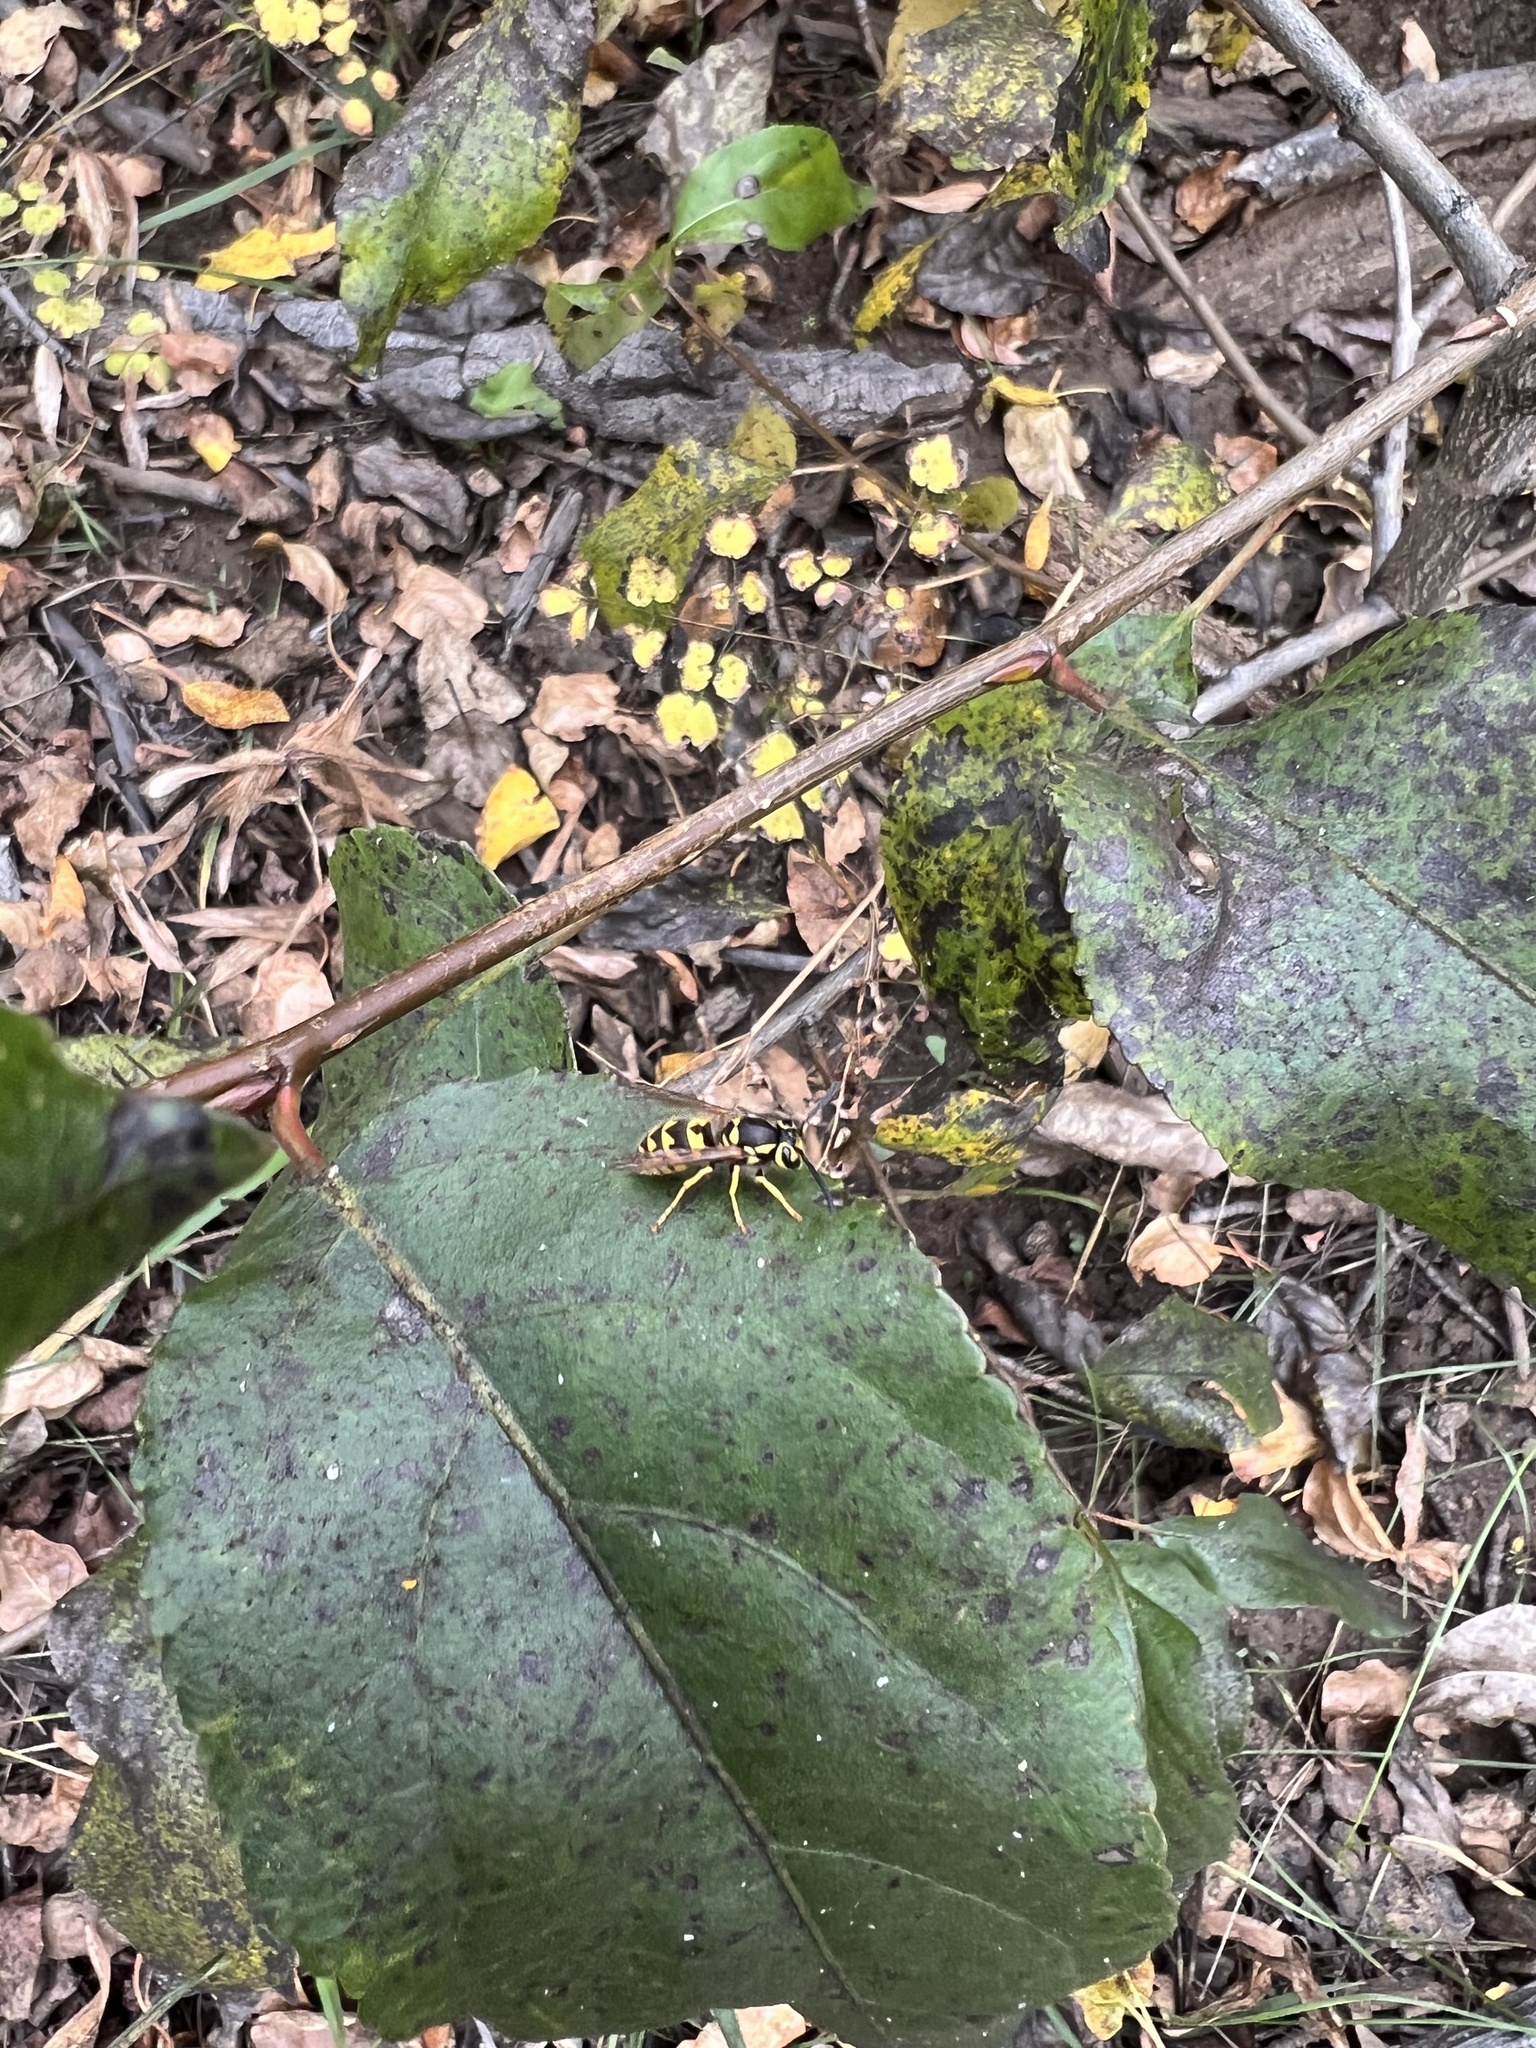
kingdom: Animalia
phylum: Arthropoda
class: Insecta
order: Hymenoptera
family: Vespidae
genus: Vespula
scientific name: Vespula pensylvanica
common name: Western yellowjacket
